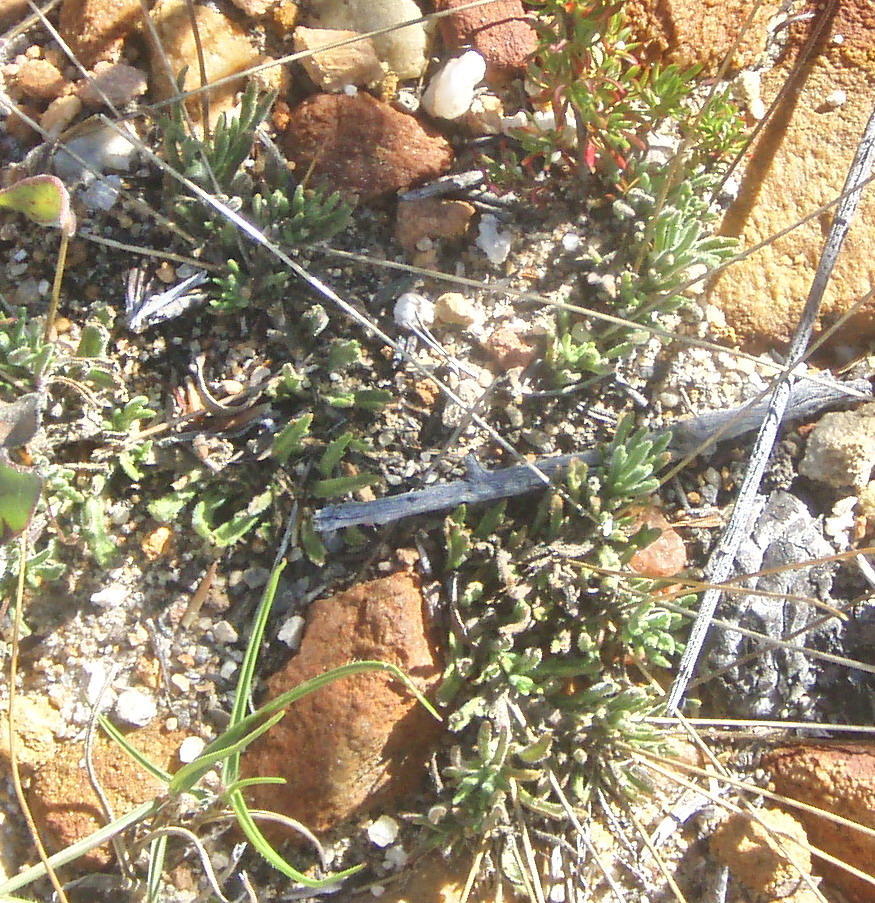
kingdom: Plantae
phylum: Tracheophyta
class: Magnoliopsida
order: Asterales
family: Campanulaceae
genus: Lobelia
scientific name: Lobelia tomentosa
